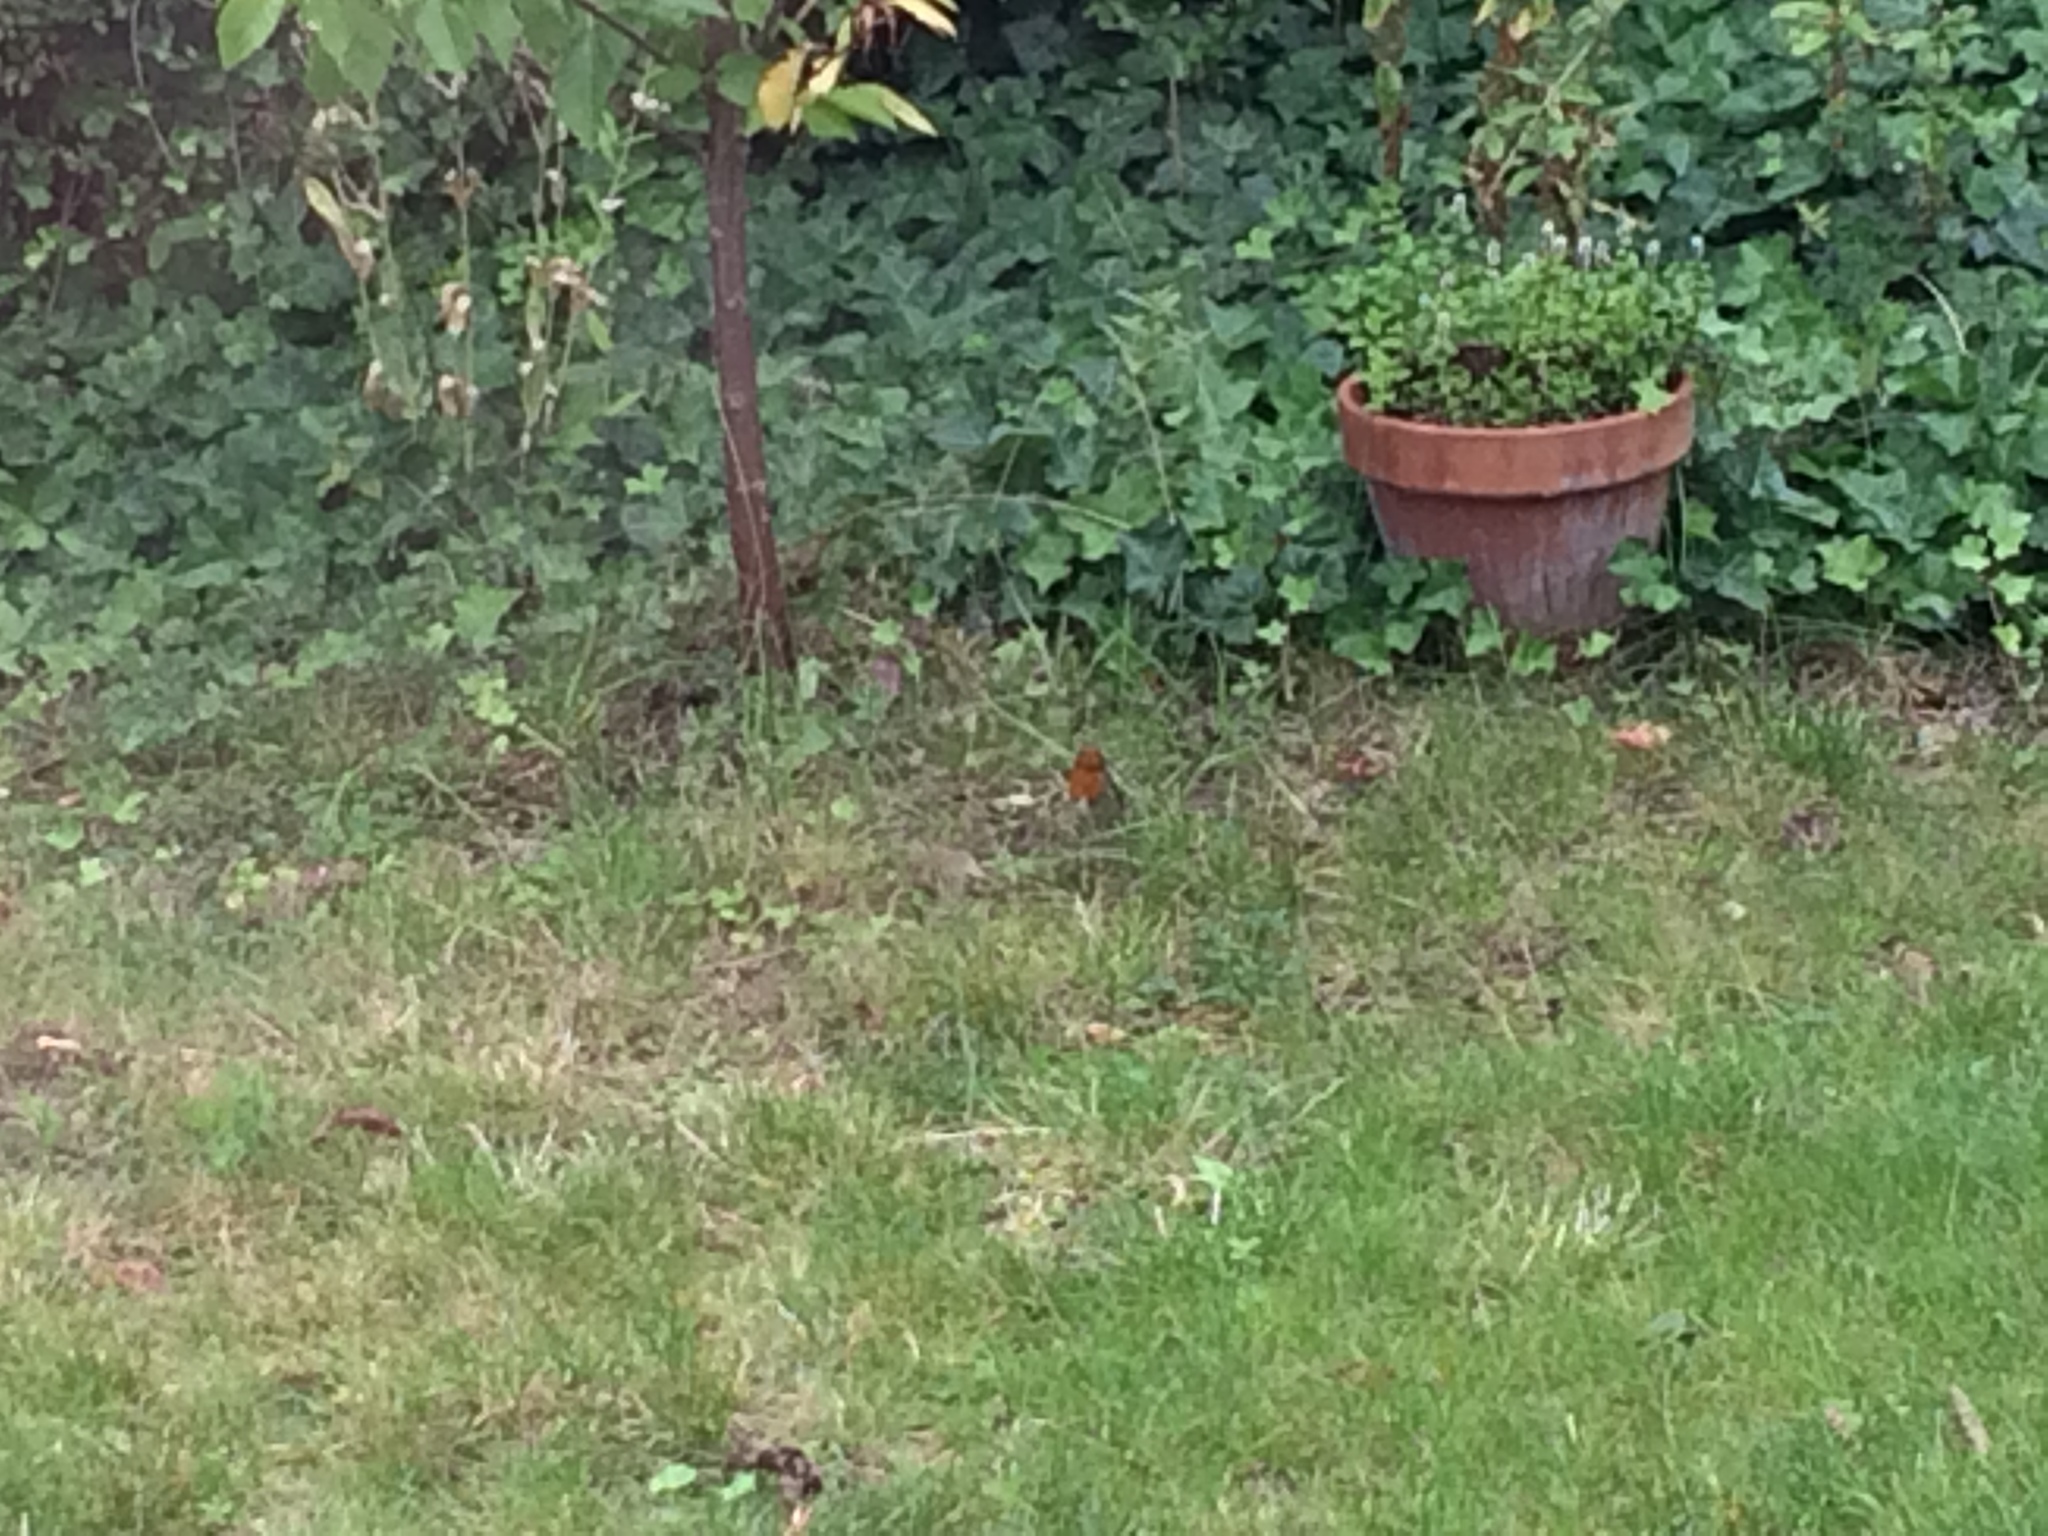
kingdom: Animalia
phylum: Chordata
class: Aves
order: Passeriformes
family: Muscicapidae
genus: Erithacus
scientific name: Erithacus rubecula
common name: European robin
